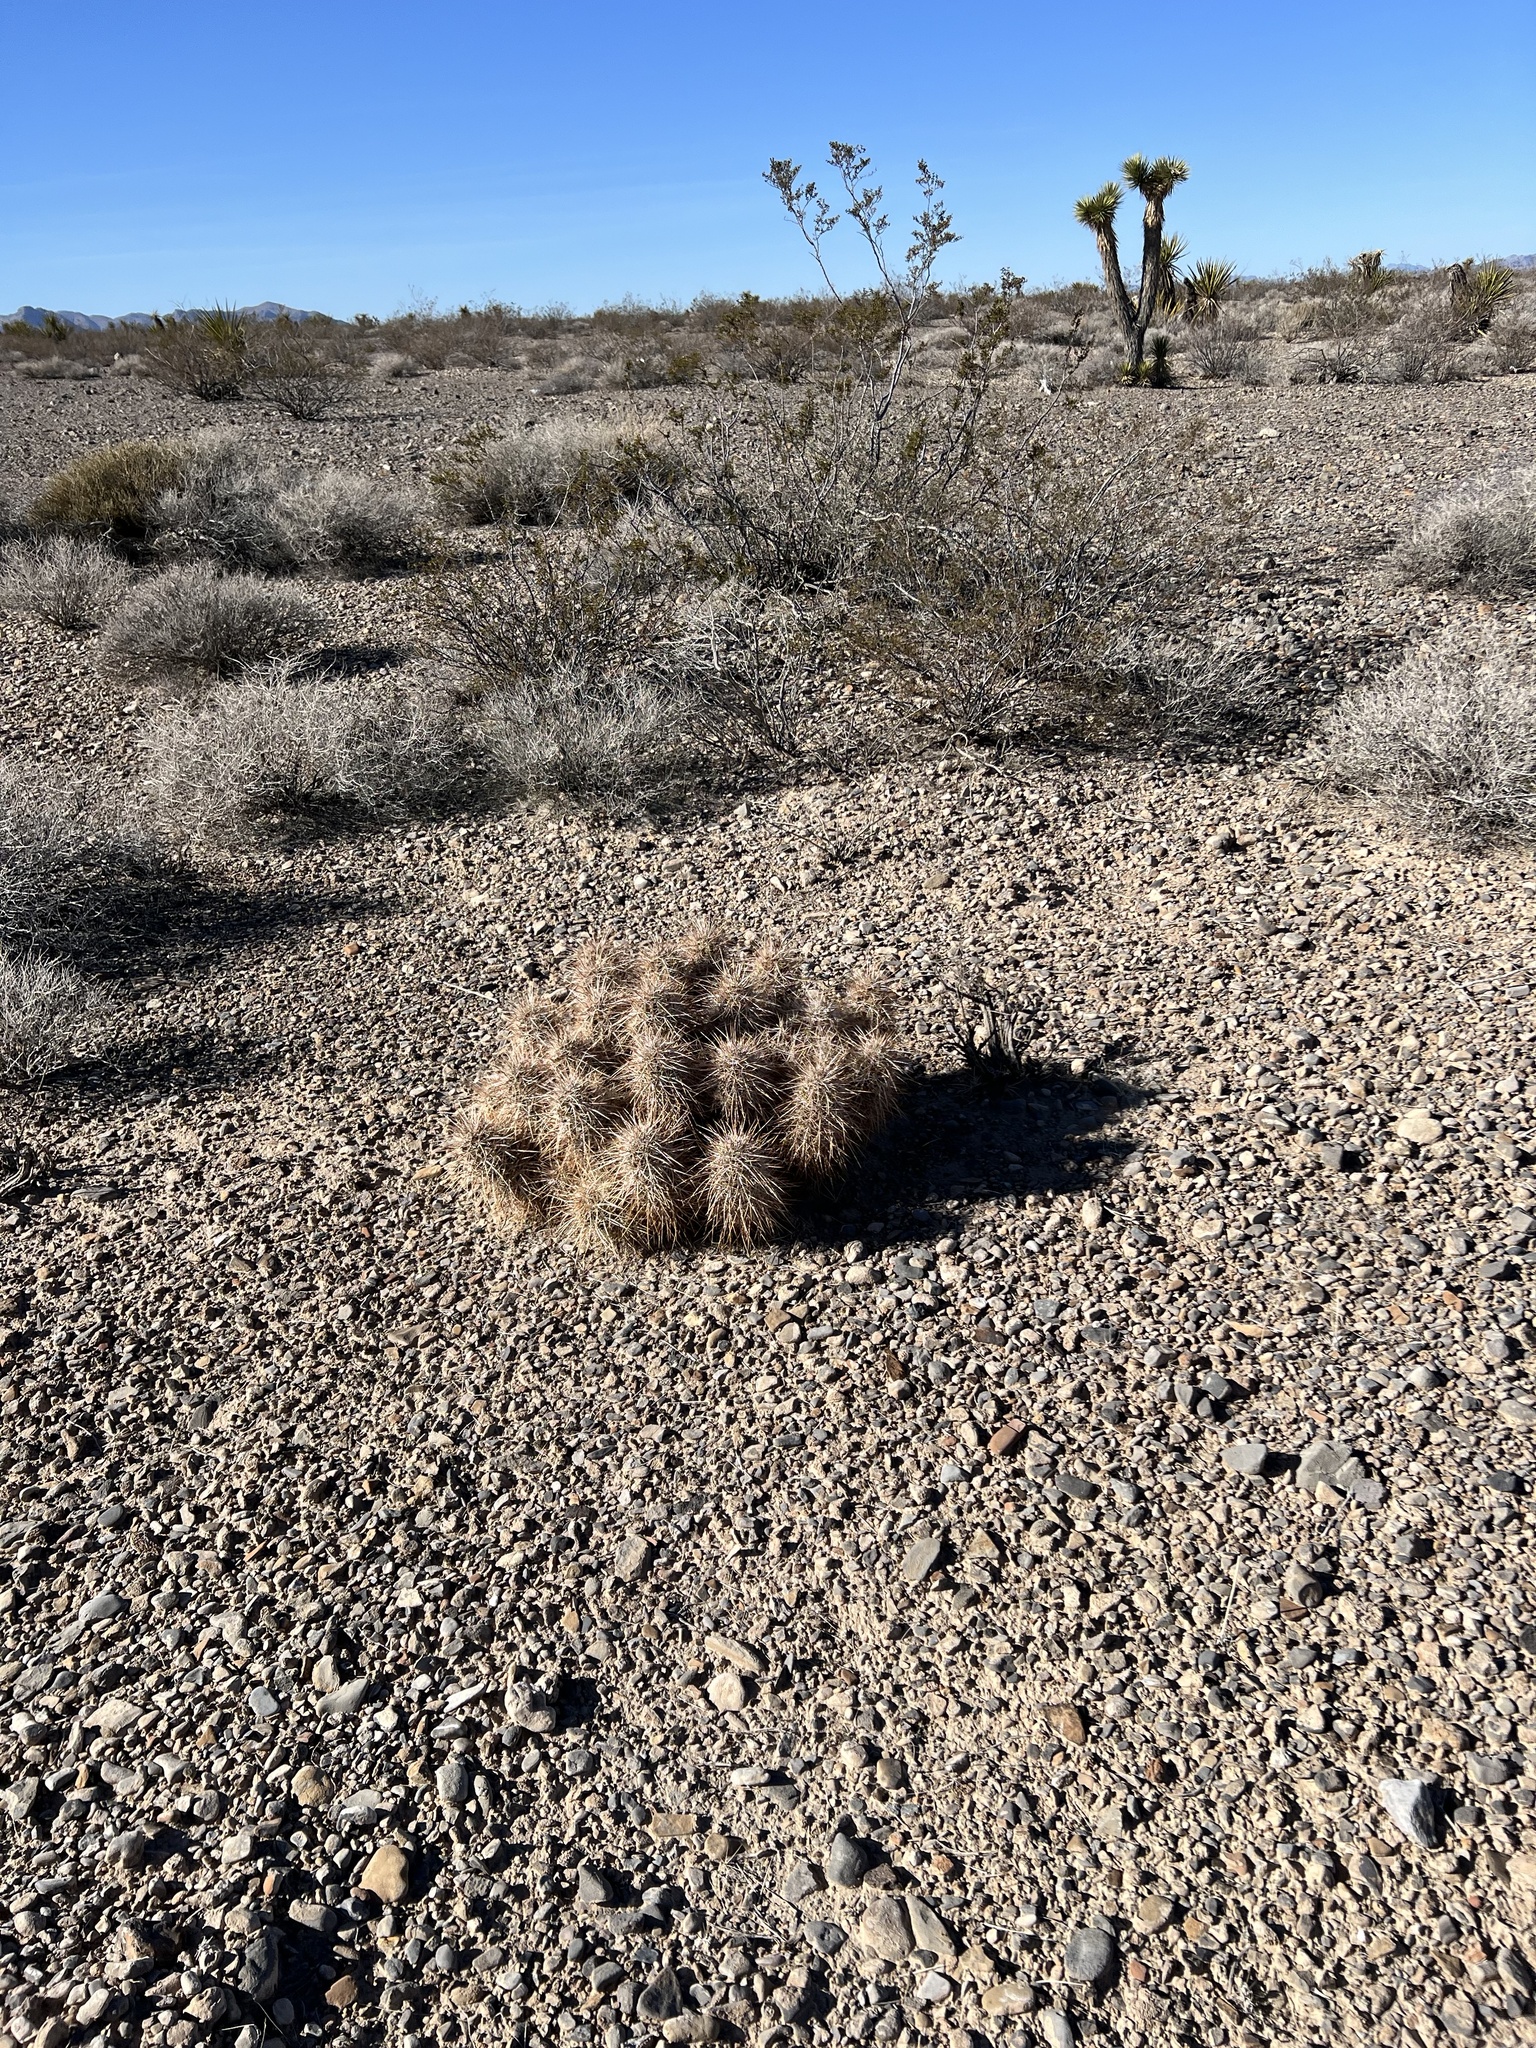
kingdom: Plantae
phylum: Tracheophyta
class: Magnoliopsida
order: Caryophyllales
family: Cactaceae
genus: Echinocereus
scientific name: Echinocereus engelmannii
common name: Engelmann's hedgehog cactus
